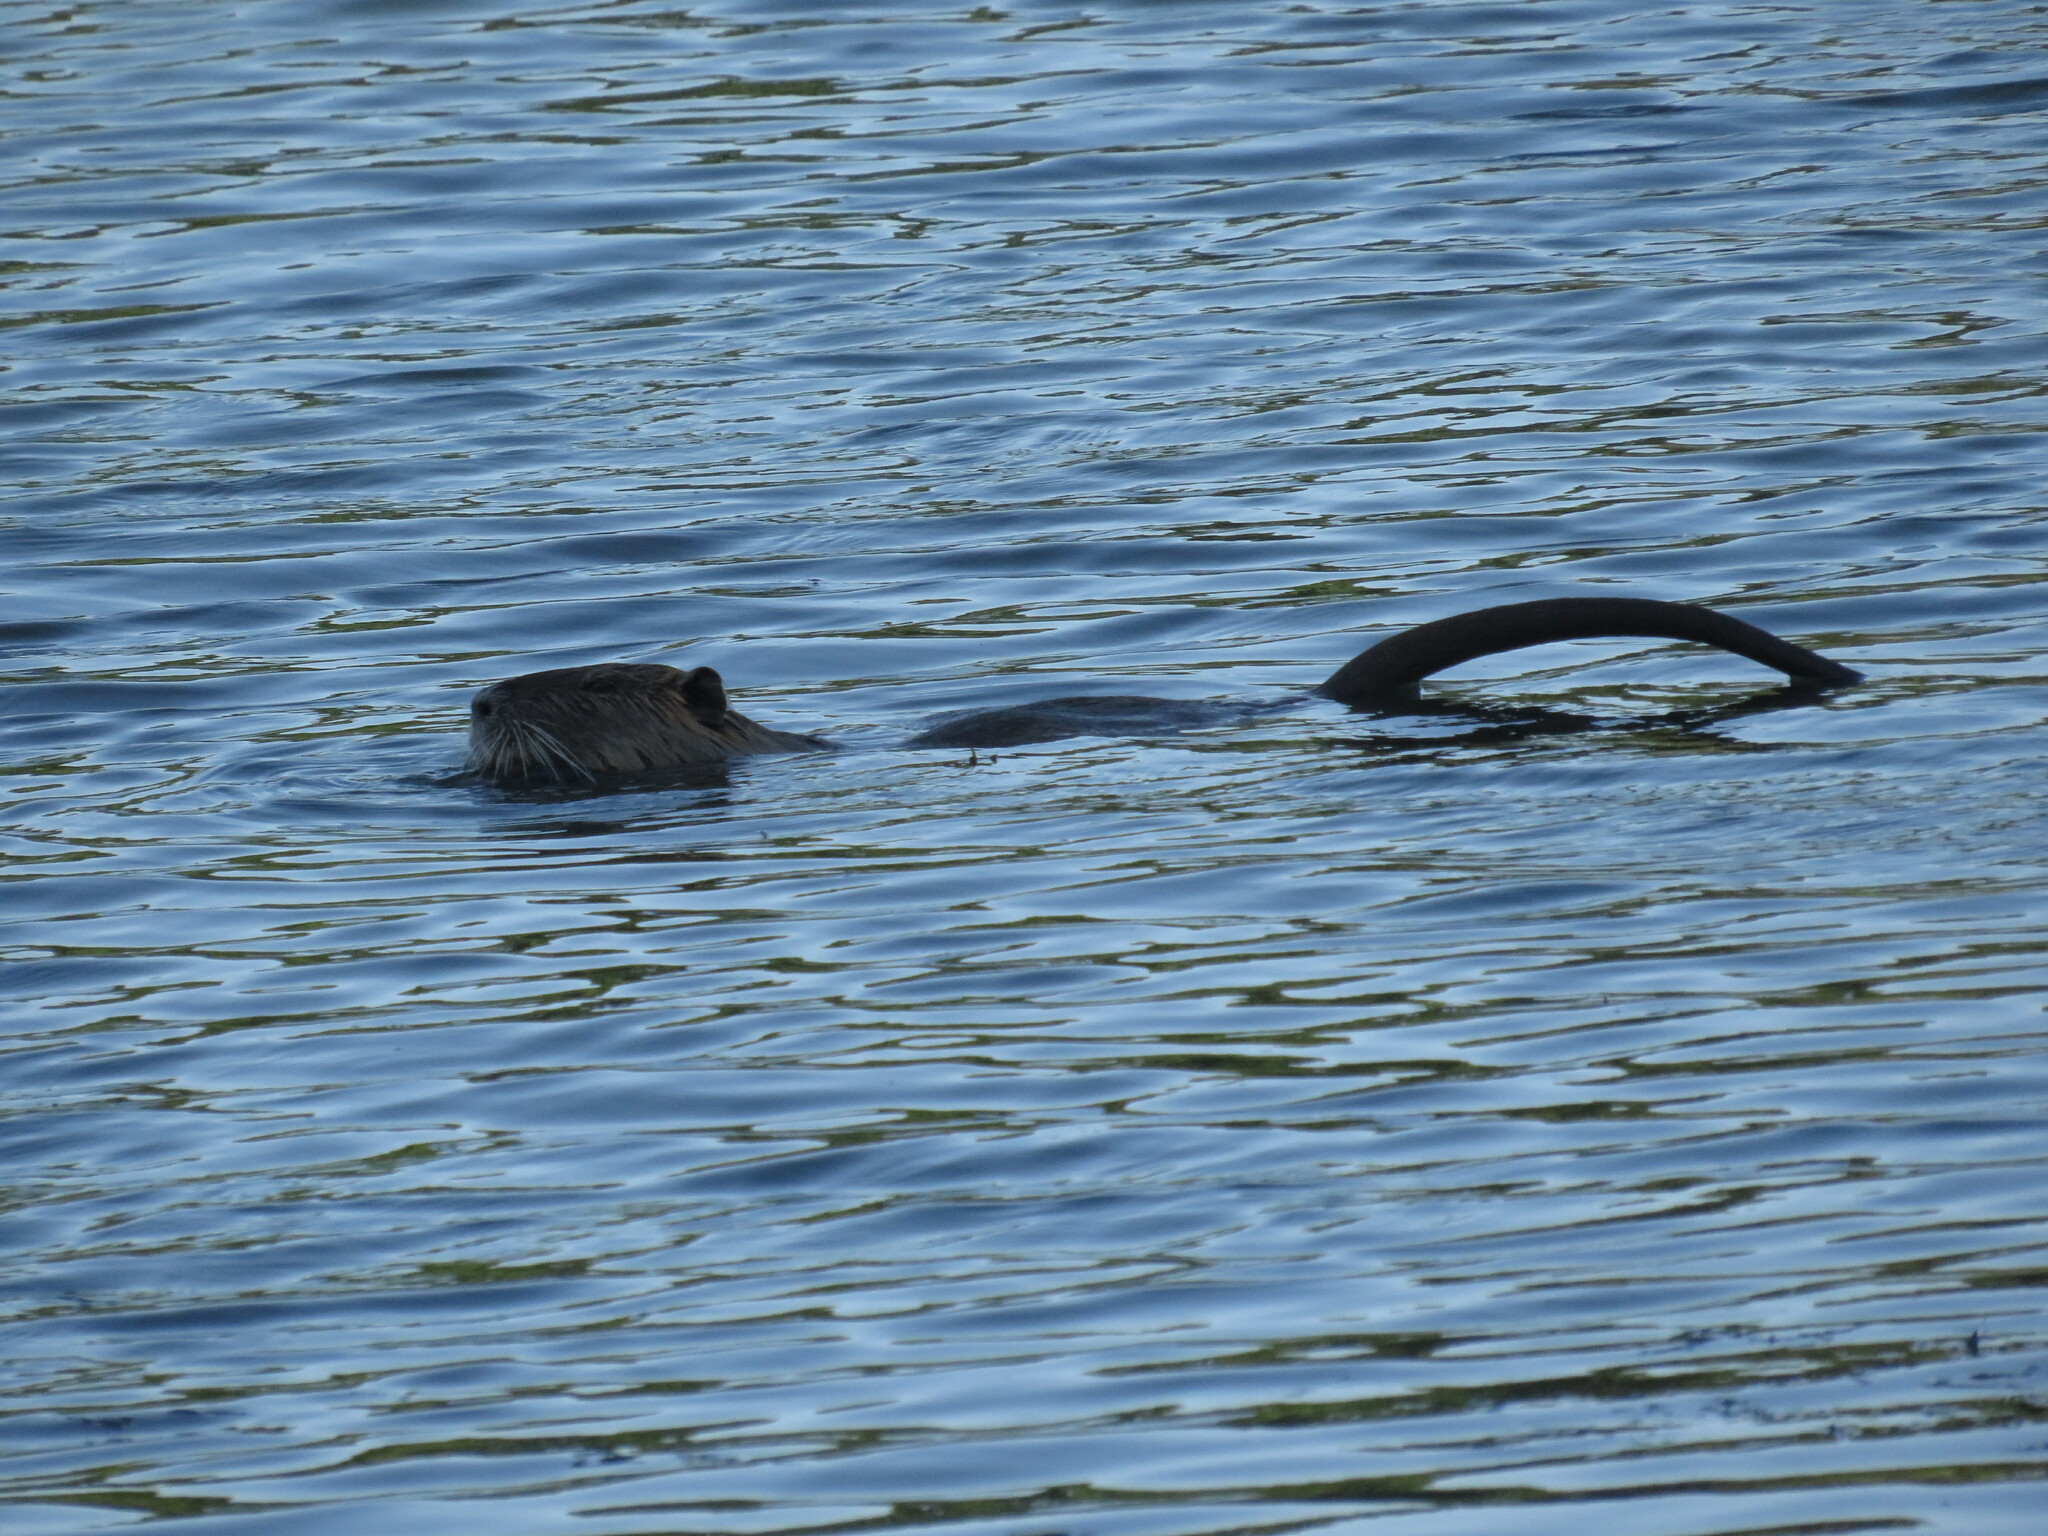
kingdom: Animalia
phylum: Chordata
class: Mammalia
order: Rodentia
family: Myocastoridae
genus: Myocastor
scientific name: Myocastor coypus
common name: Coypu
